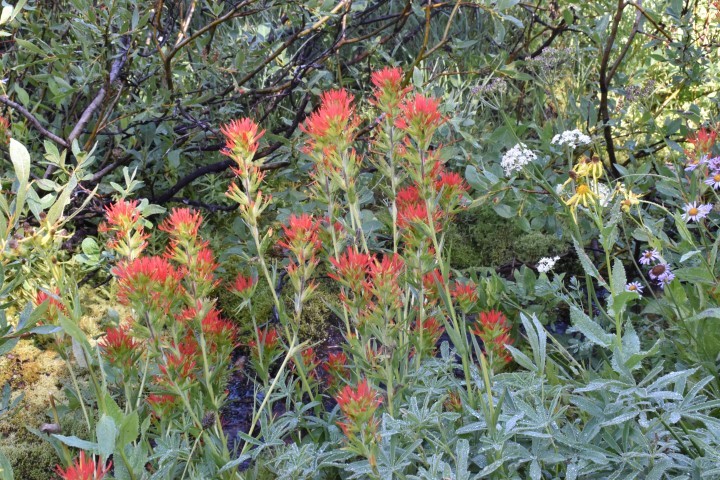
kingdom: Plantae
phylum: Tracheophyta
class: Magnoliopsida
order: Lamiales
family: Orobanchaceae
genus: Castilleja
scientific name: Castilleja suksdorfii
